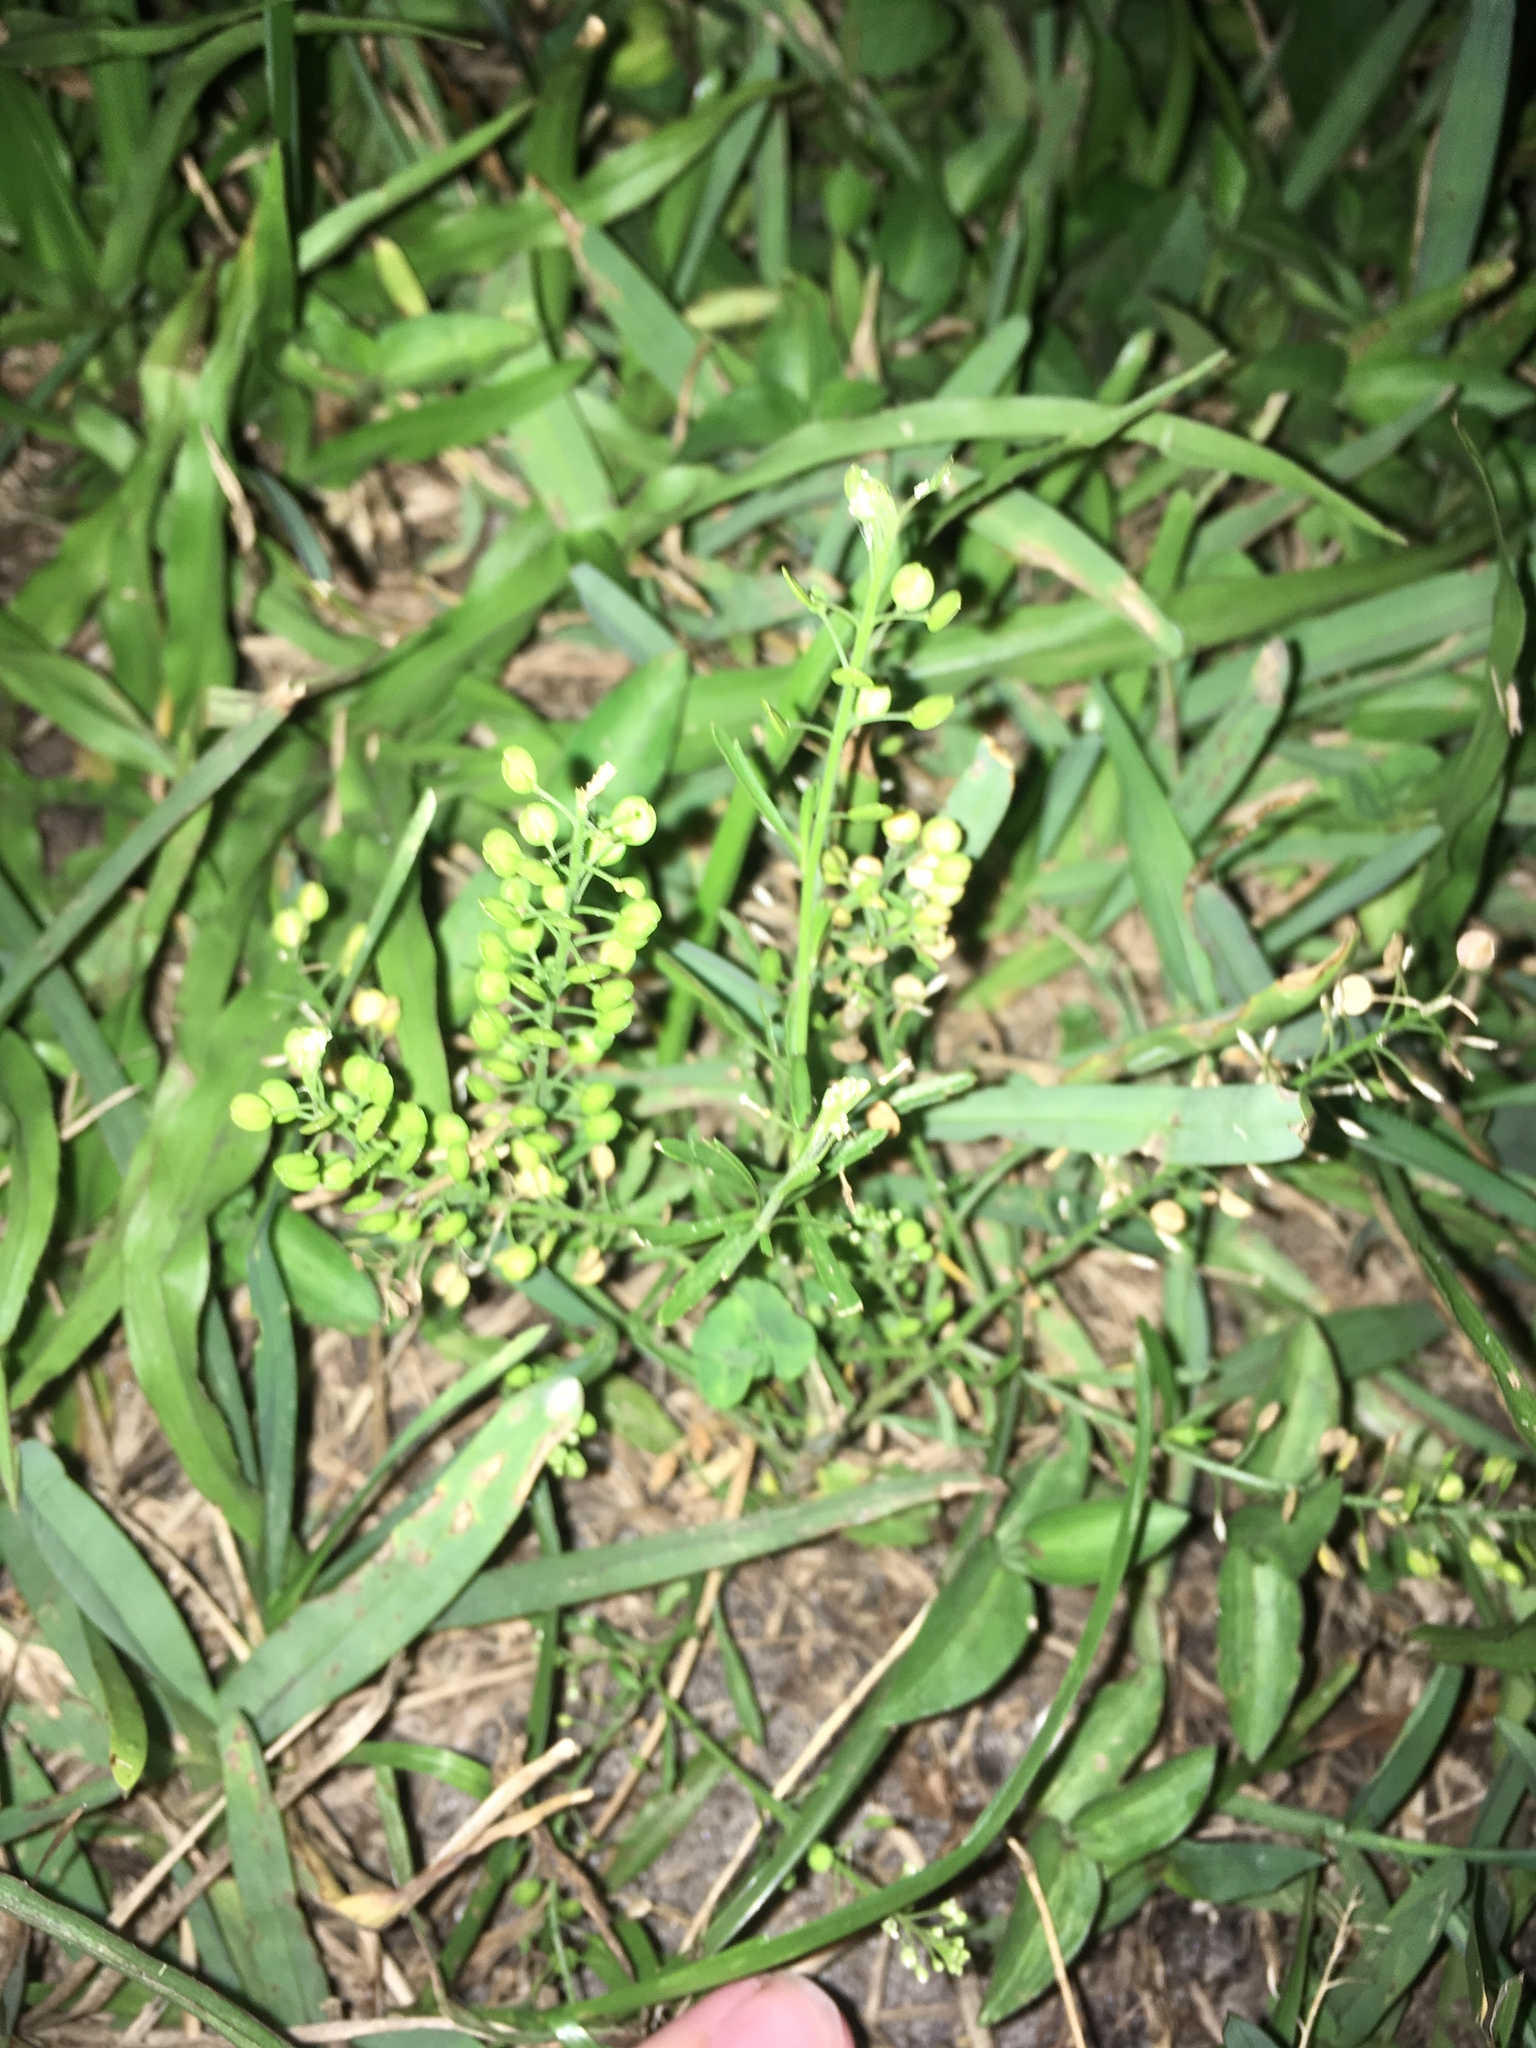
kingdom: Plantae
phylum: Tracheophyta
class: Magnoliopsida
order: Brassicales
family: Brassicaceae
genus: Lepidium
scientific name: Lepidium virginicum
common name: Least pepperwort
